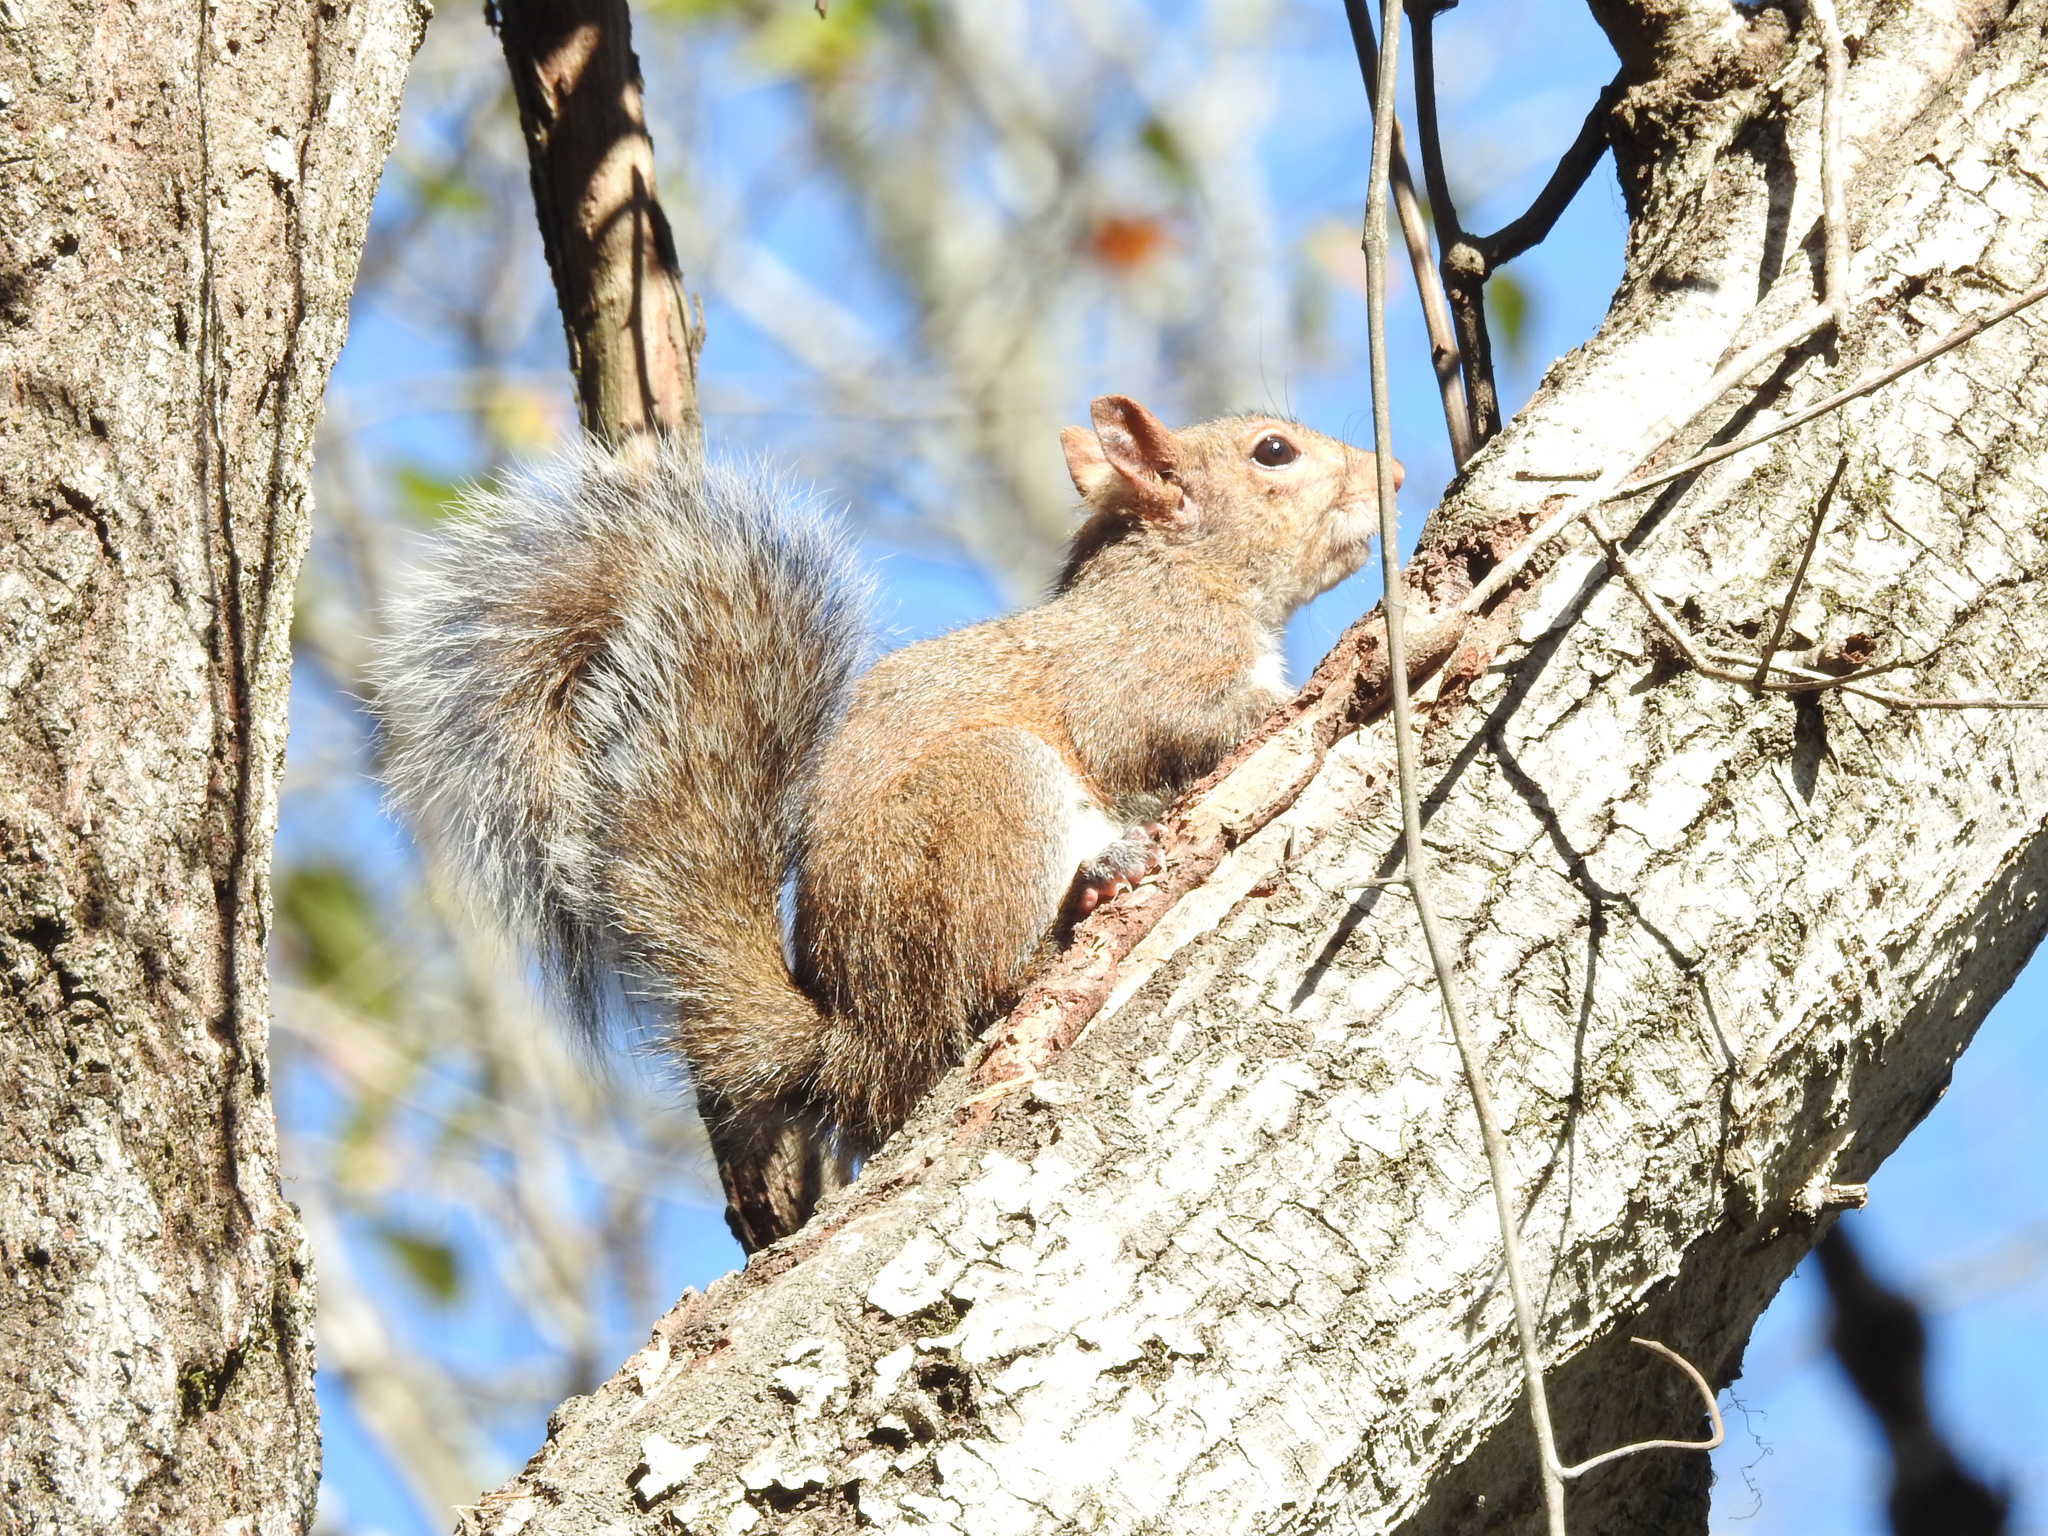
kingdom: Animalia
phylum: Chordata
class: Mammalia
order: Rodentia
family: Sciuridae
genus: Sciurus
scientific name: Sciurus carolinensis
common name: Eastern gray squirrel
